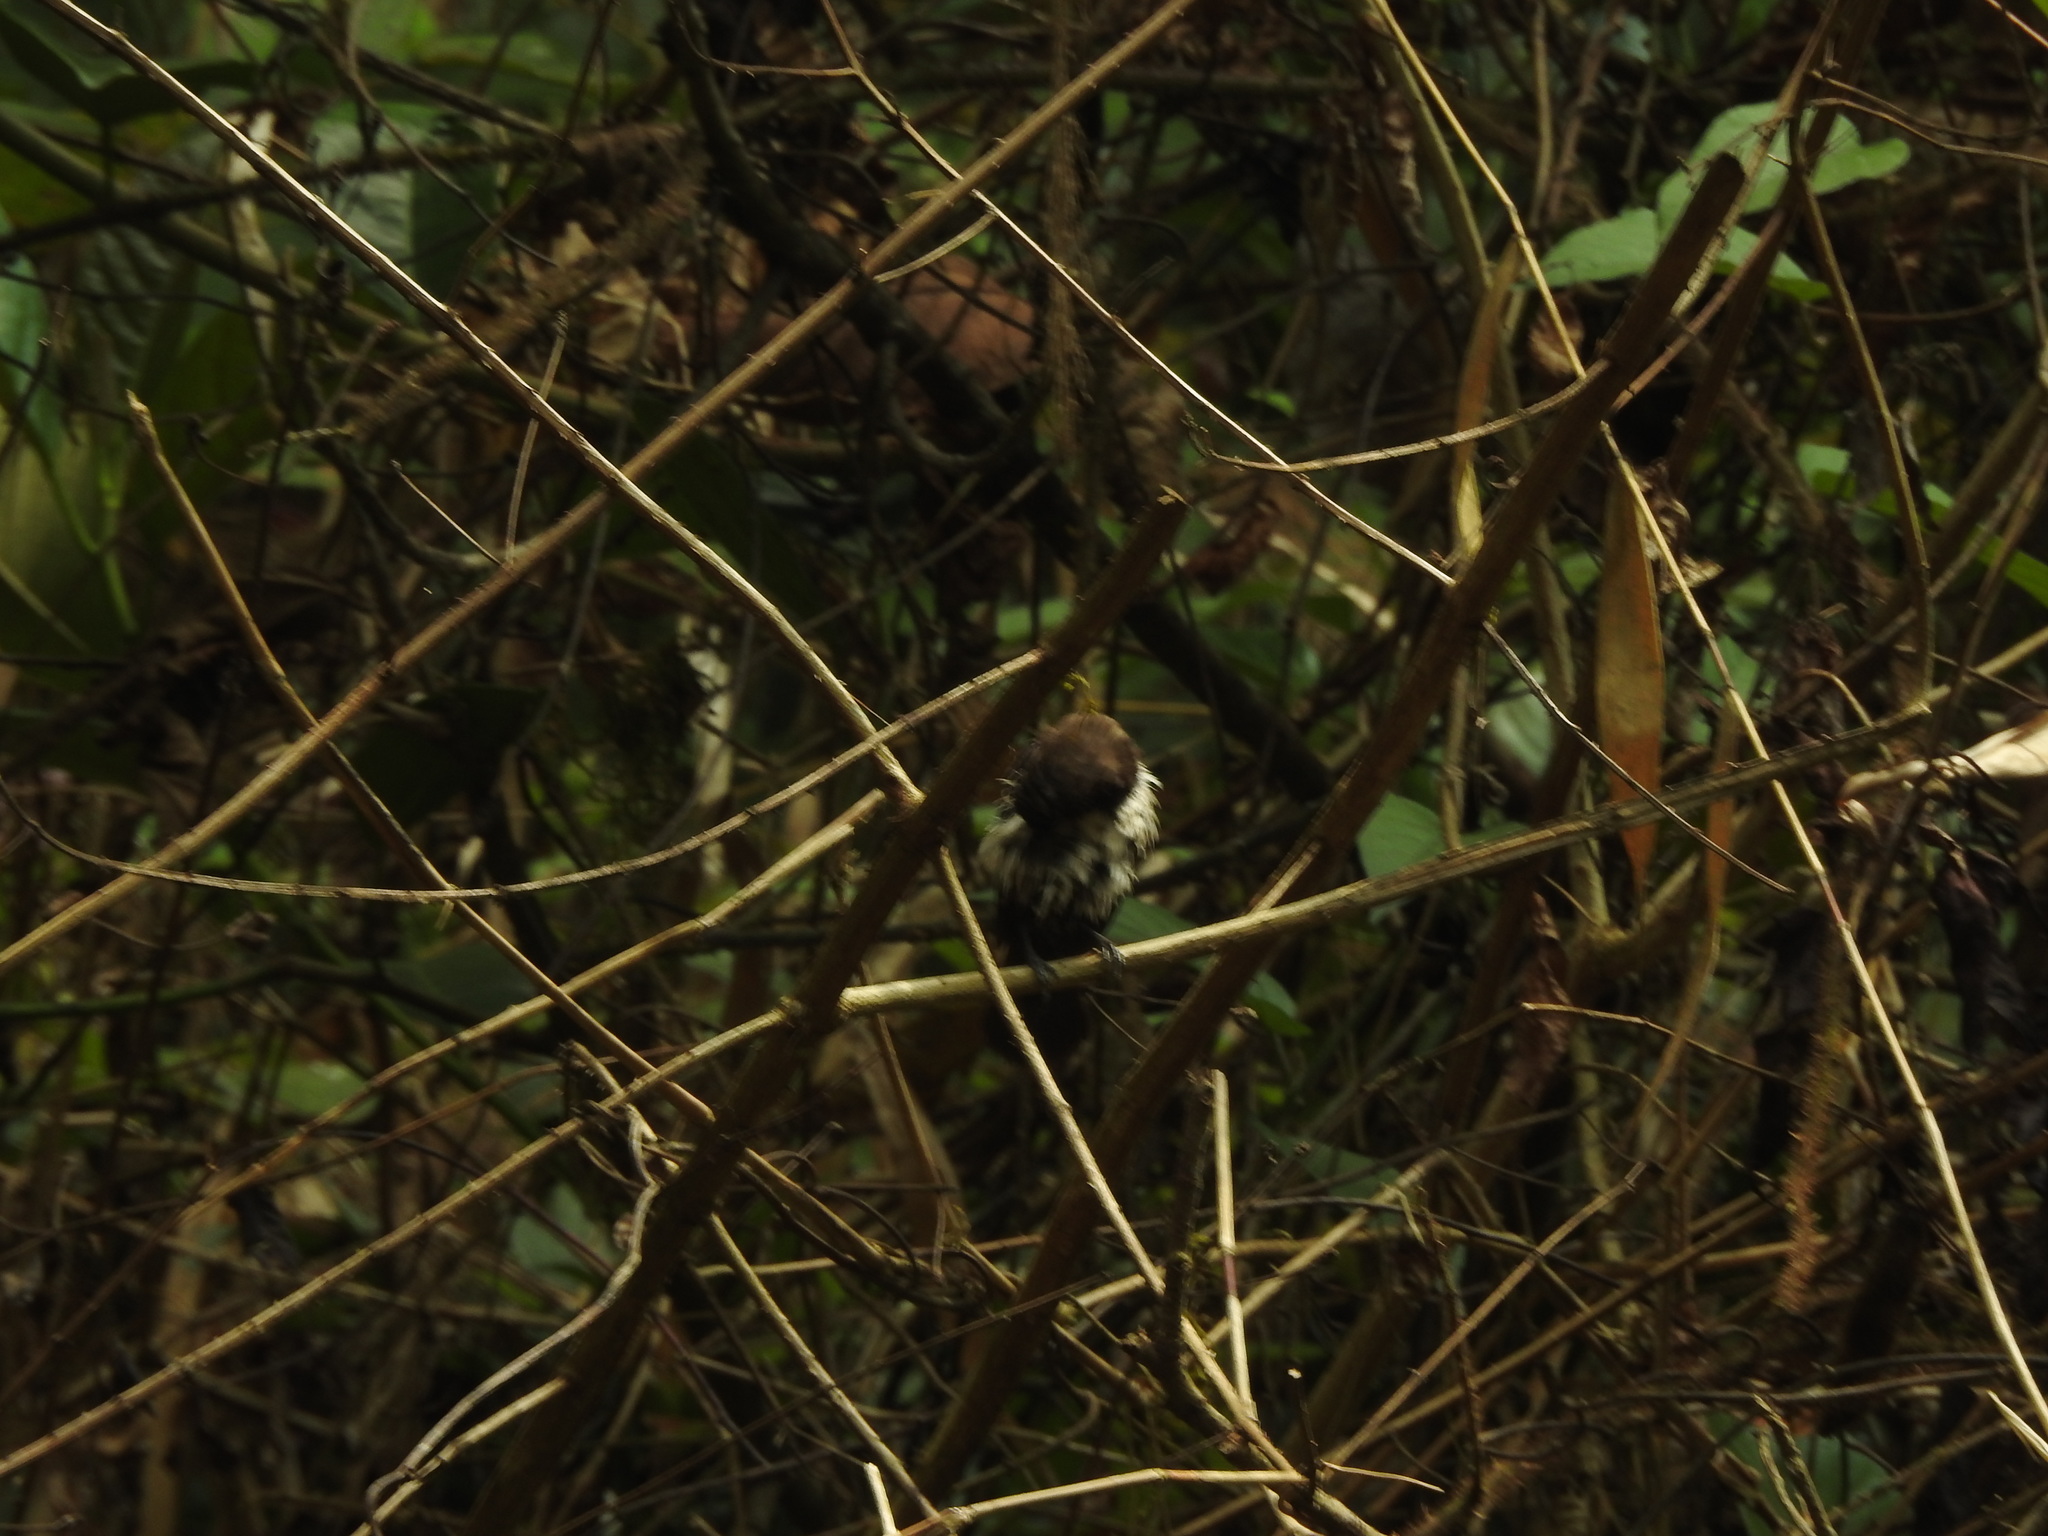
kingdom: Animalia
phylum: Chordata
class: Aves
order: Passeriformes
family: Estrildidae
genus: Lonchura
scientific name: Lonchura striata
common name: White-rumped munia
